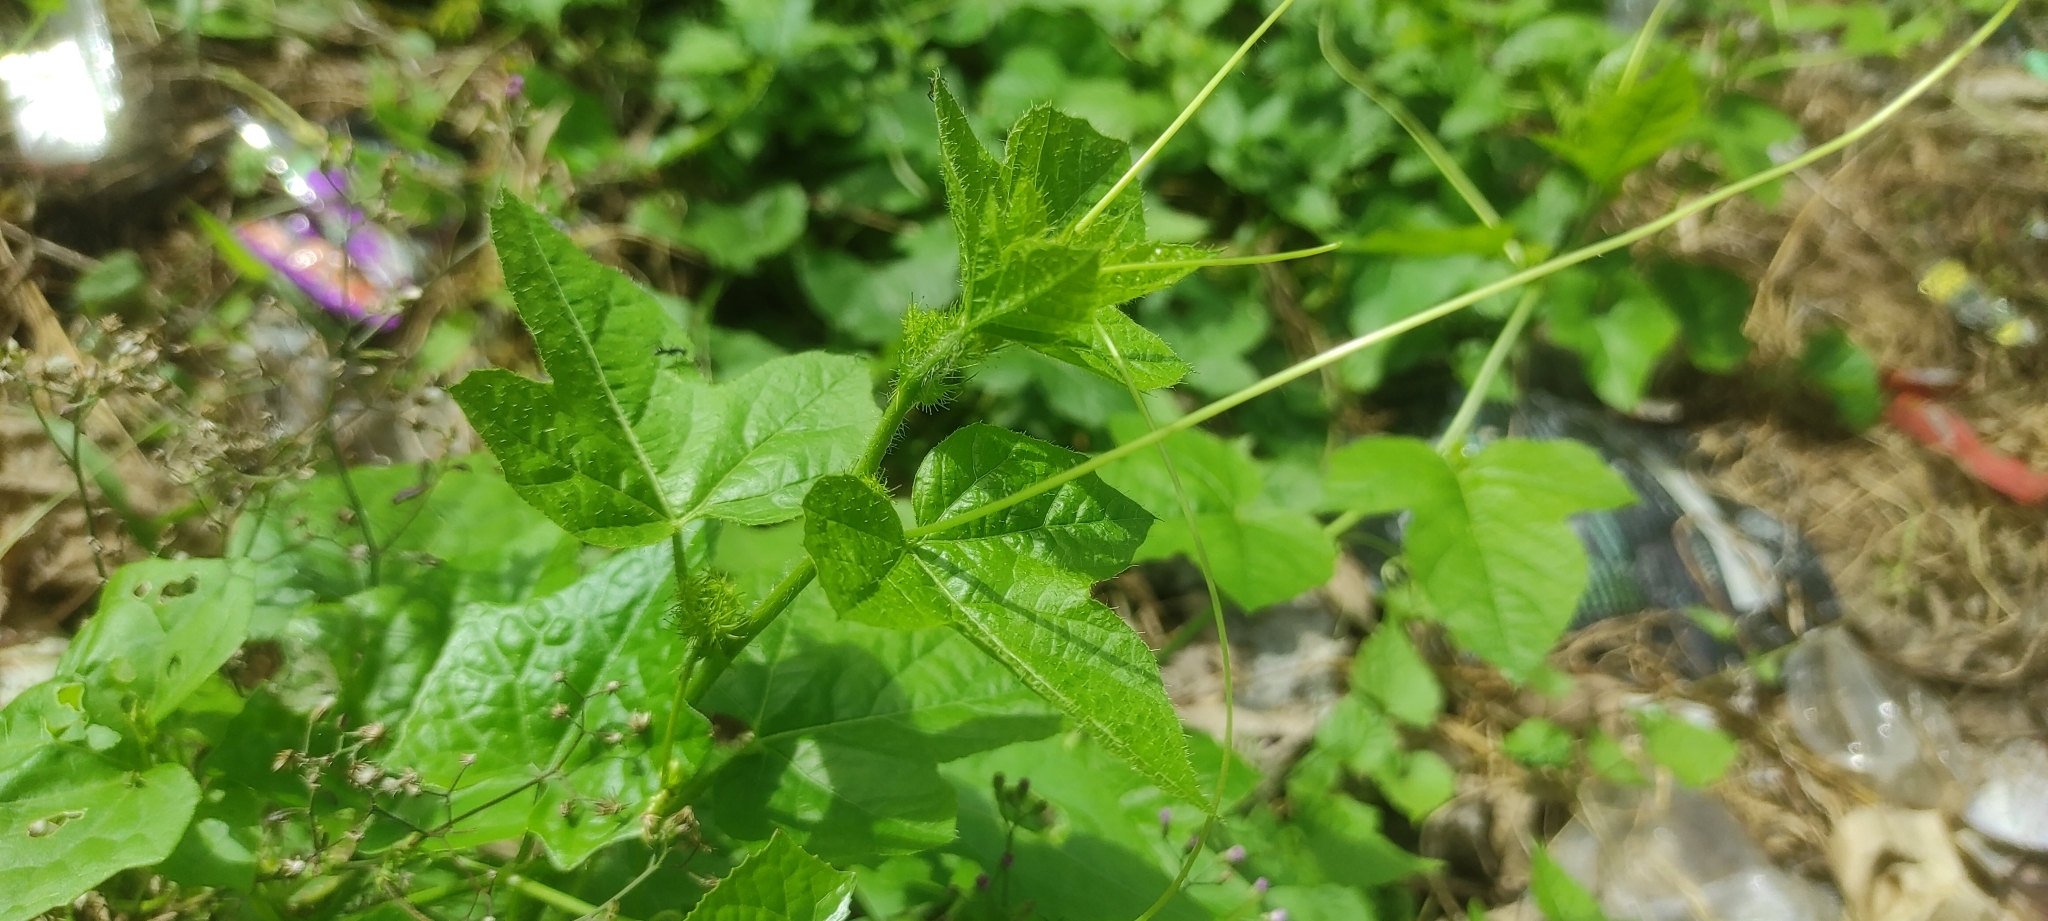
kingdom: Plantae
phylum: Tracheophyta
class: Magnoliopsida
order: Malpighiales
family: Passifloraceae
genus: Passiflora
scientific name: Passiflora foetida
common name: Fetid passionflower
